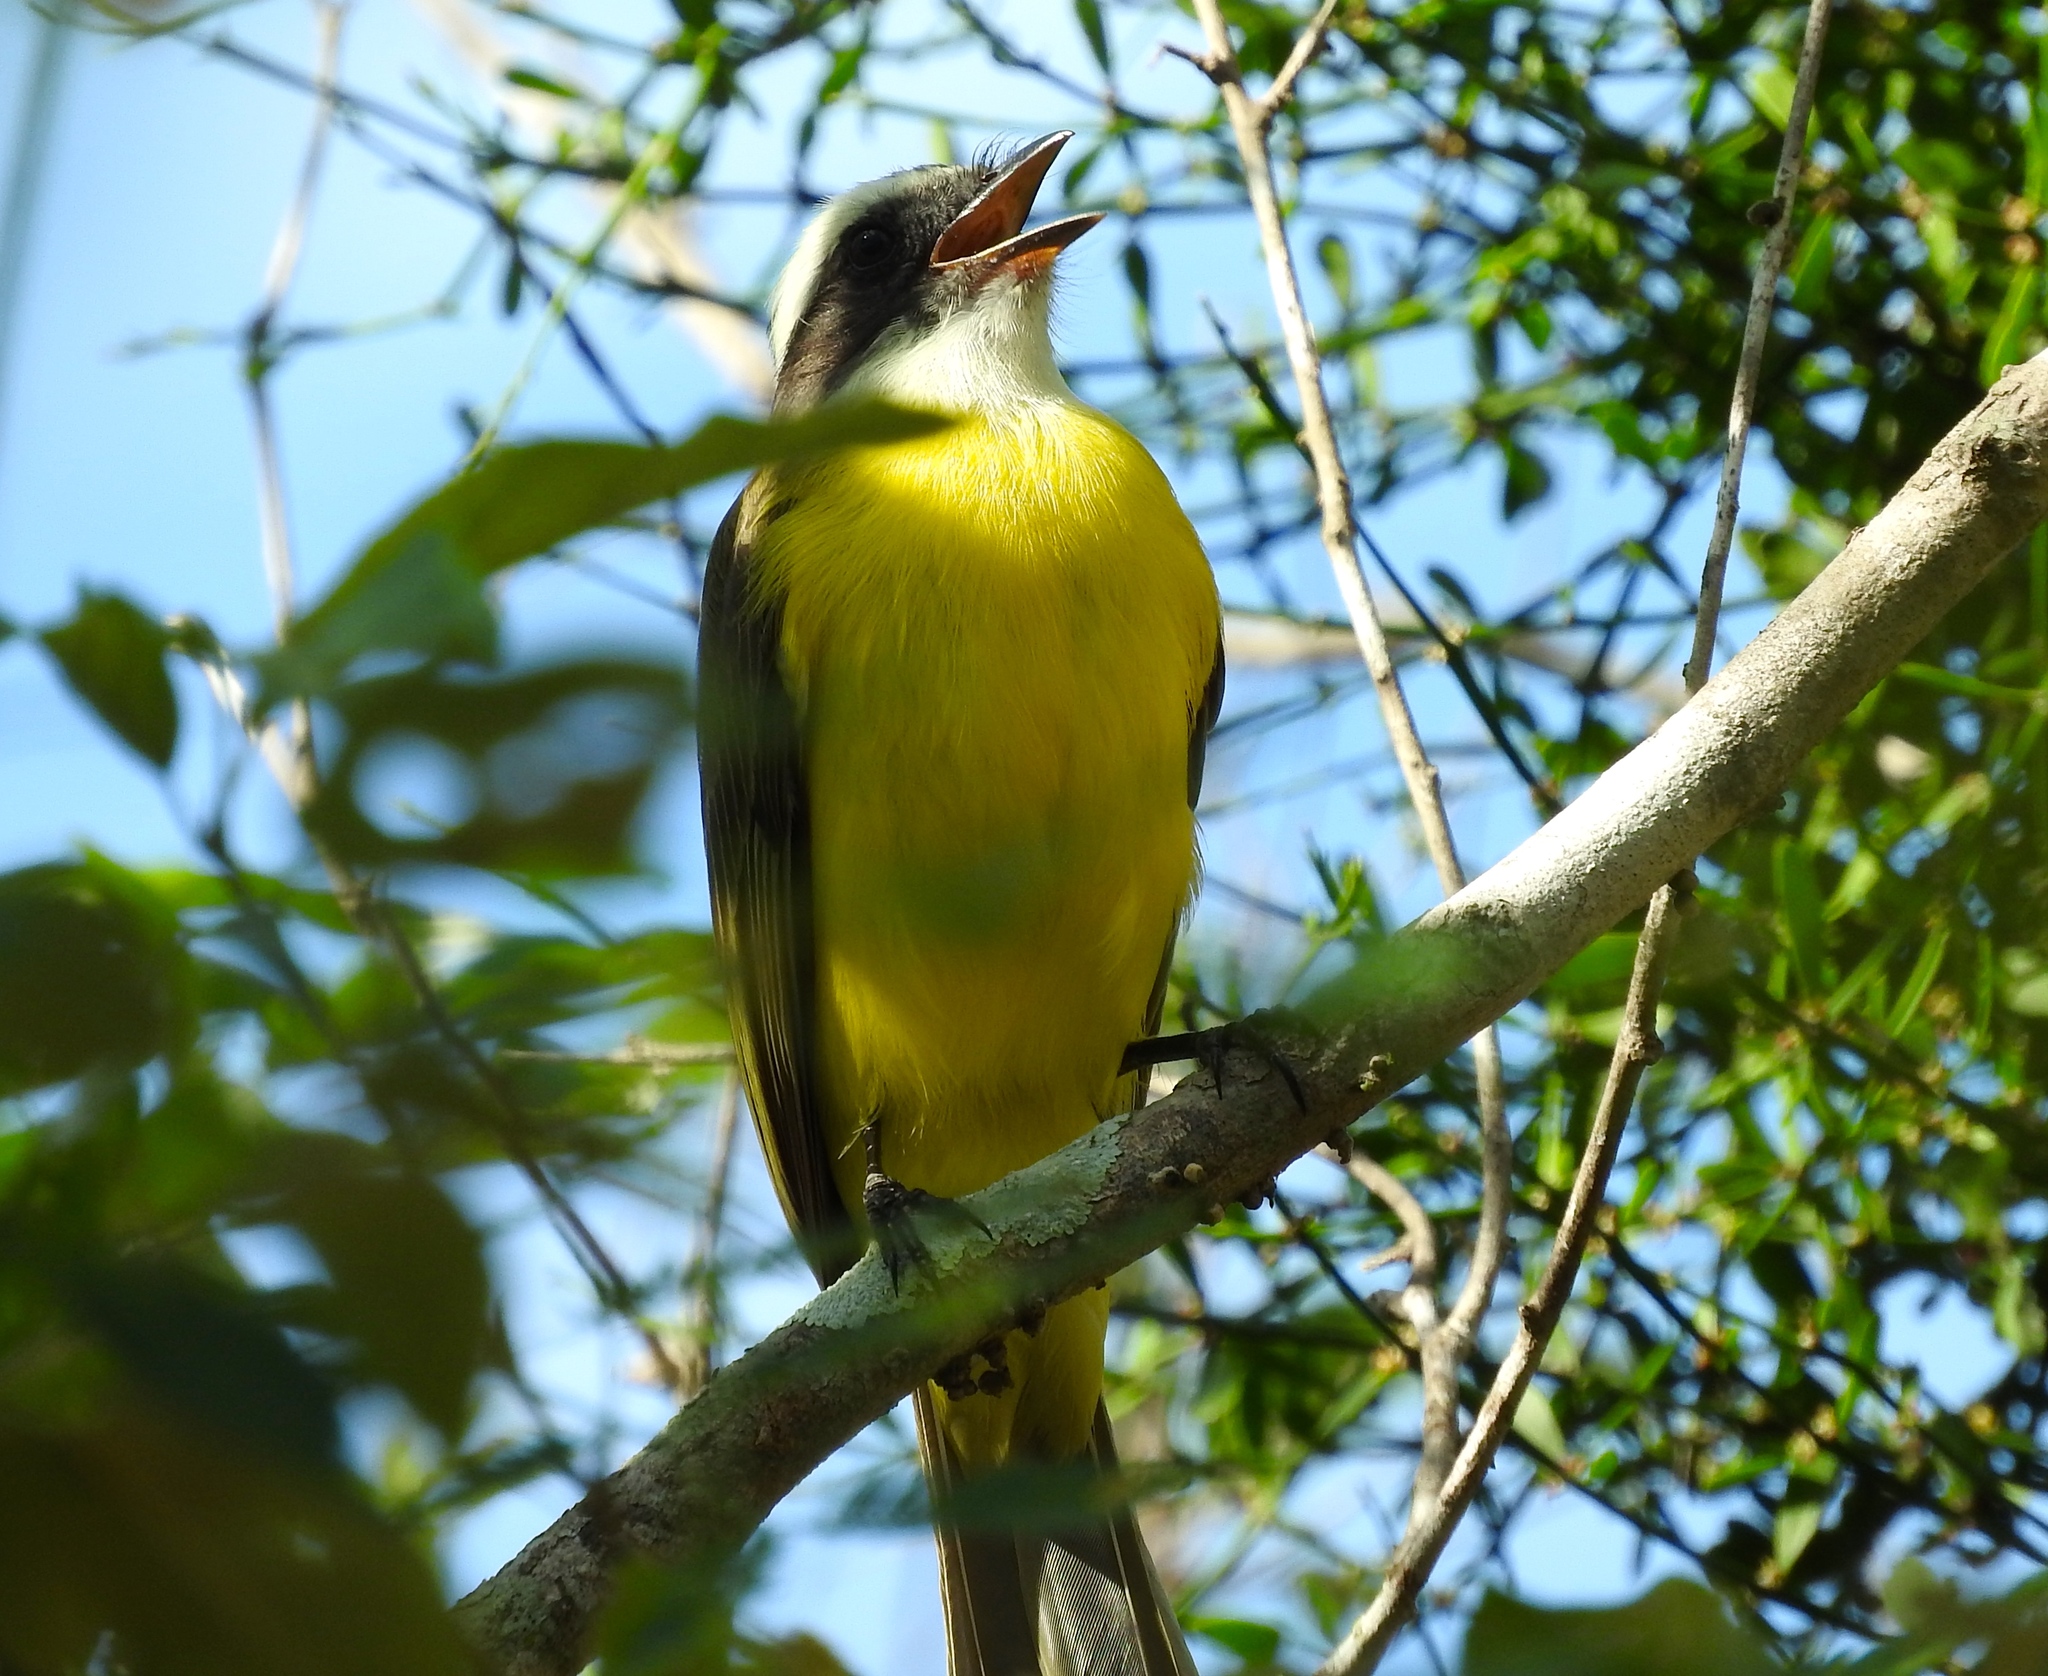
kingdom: Animalia
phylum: Chordata
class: Aves
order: Passeriformes
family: Tyrannidae
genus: Myiozetetes
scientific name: Myiozetetes similis
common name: Social flycatcher
